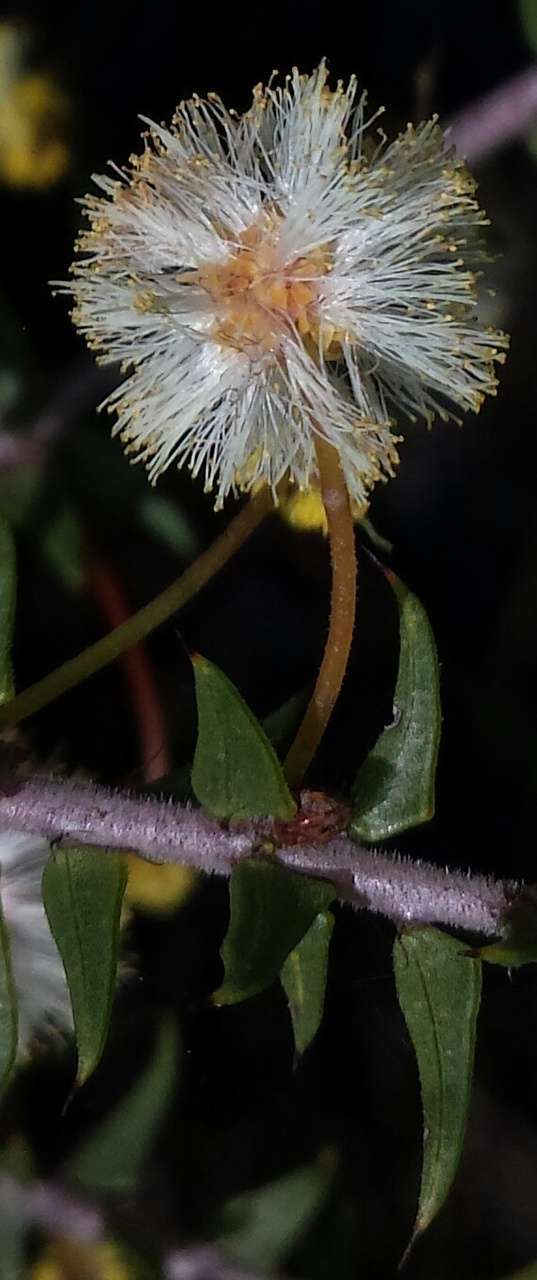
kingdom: Plantae
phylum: Tracheophyta
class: Magnoliopsida
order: Fabales
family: Fabaceae
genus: Acacia
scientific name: Acacia gunnii
